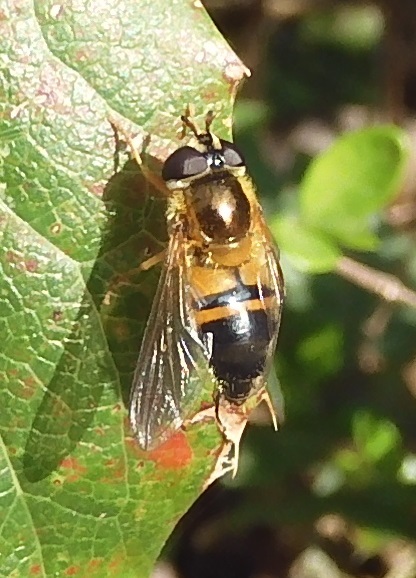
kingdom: Animalia
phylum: Arthropoda
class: Insecta
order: Diptera
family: Syrphidae
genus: Epistrophe
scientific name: Epistrophe eligans
